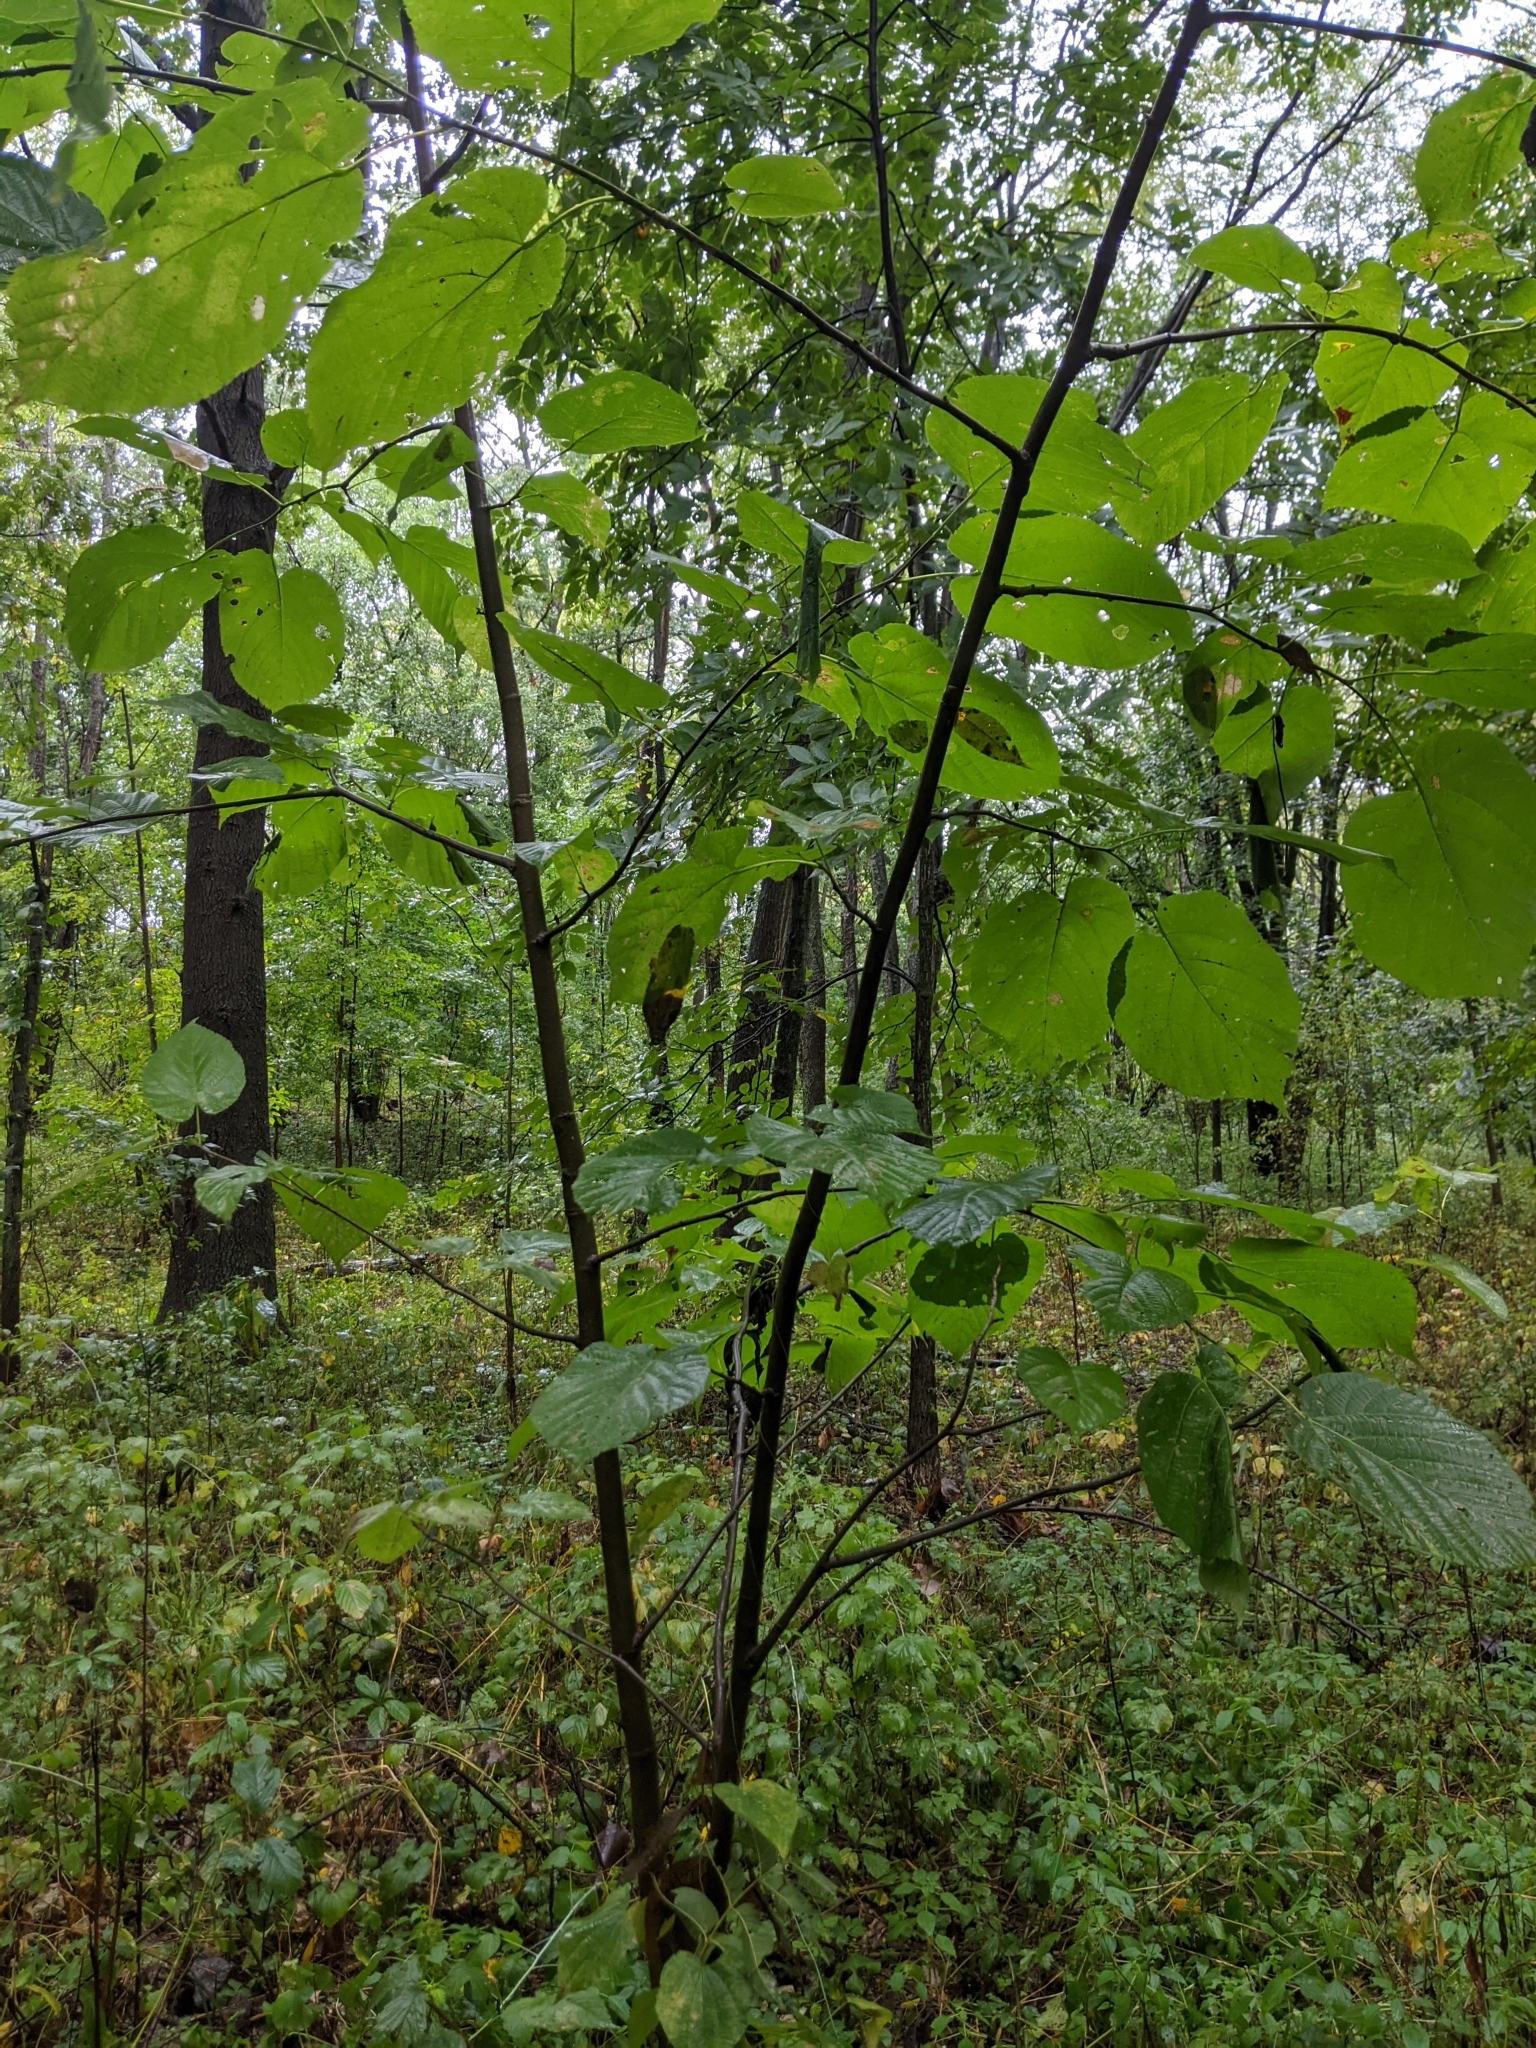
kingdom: Plantae
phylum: Tracheophyta
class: Magnoliopsida
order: Malvales
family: Malvaceae
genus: Tilia
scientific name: Tilia americana
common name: Basswood
